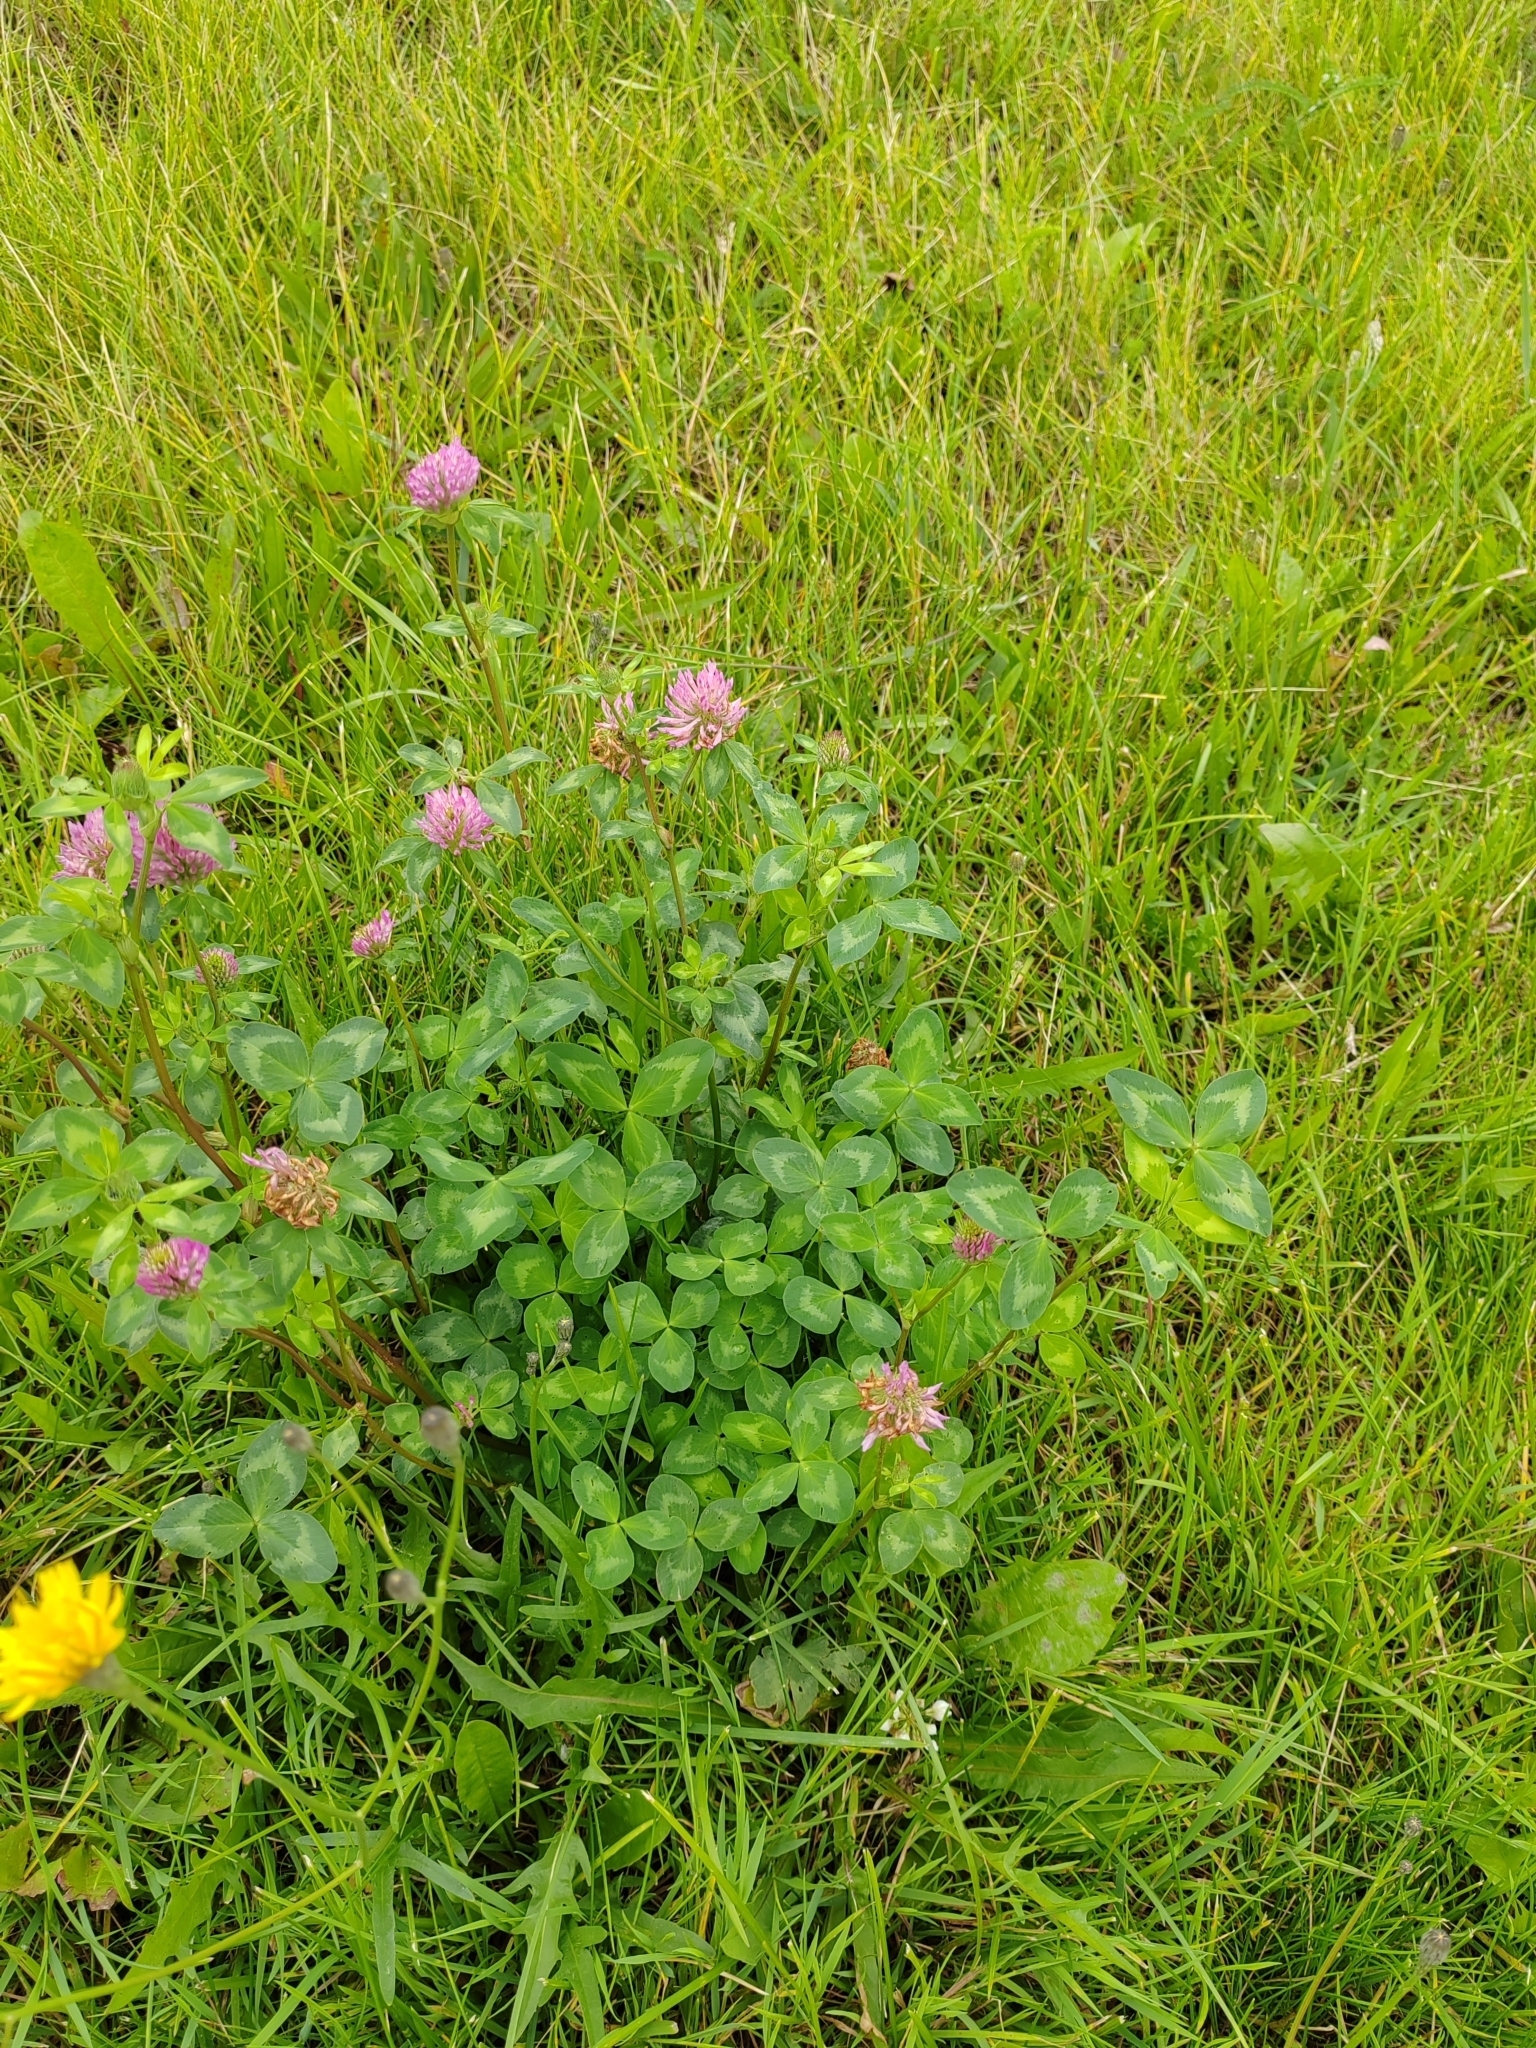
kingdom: Plantae
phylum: Tracheophyta
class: Magnoliopsida
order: Fabales
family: Fabaceae
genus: Trifolium
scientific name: Trifolium pratense
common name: Red clover
